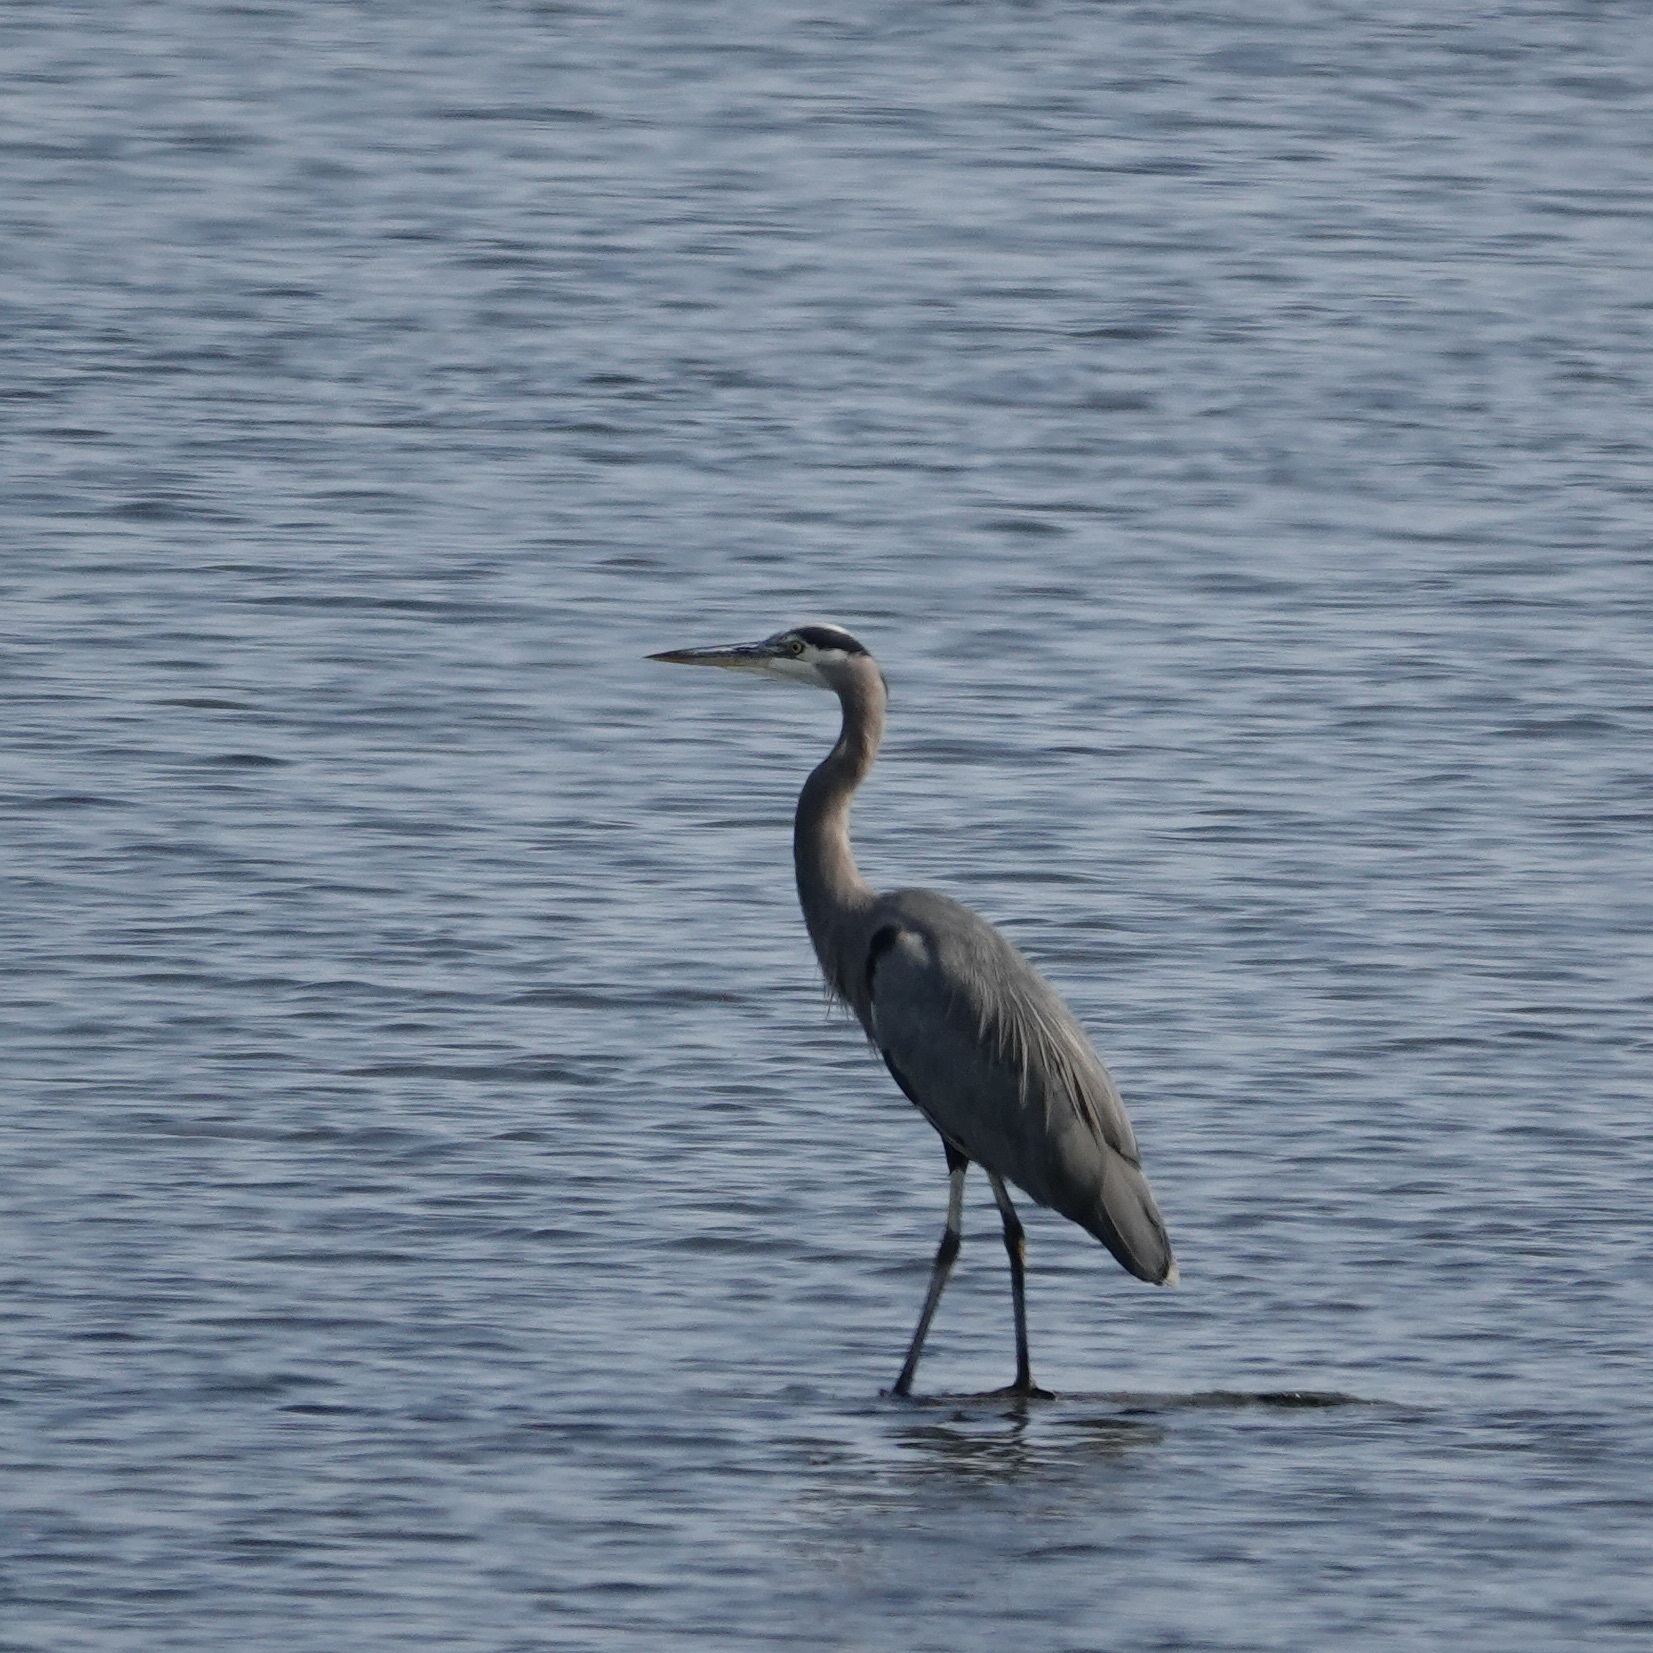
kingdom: Animalia
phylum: Chordata
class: Aves
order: Pelecaniformes
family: Ardeidae
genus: Ardea
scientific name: Ardea herodias
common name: Great blue heron
